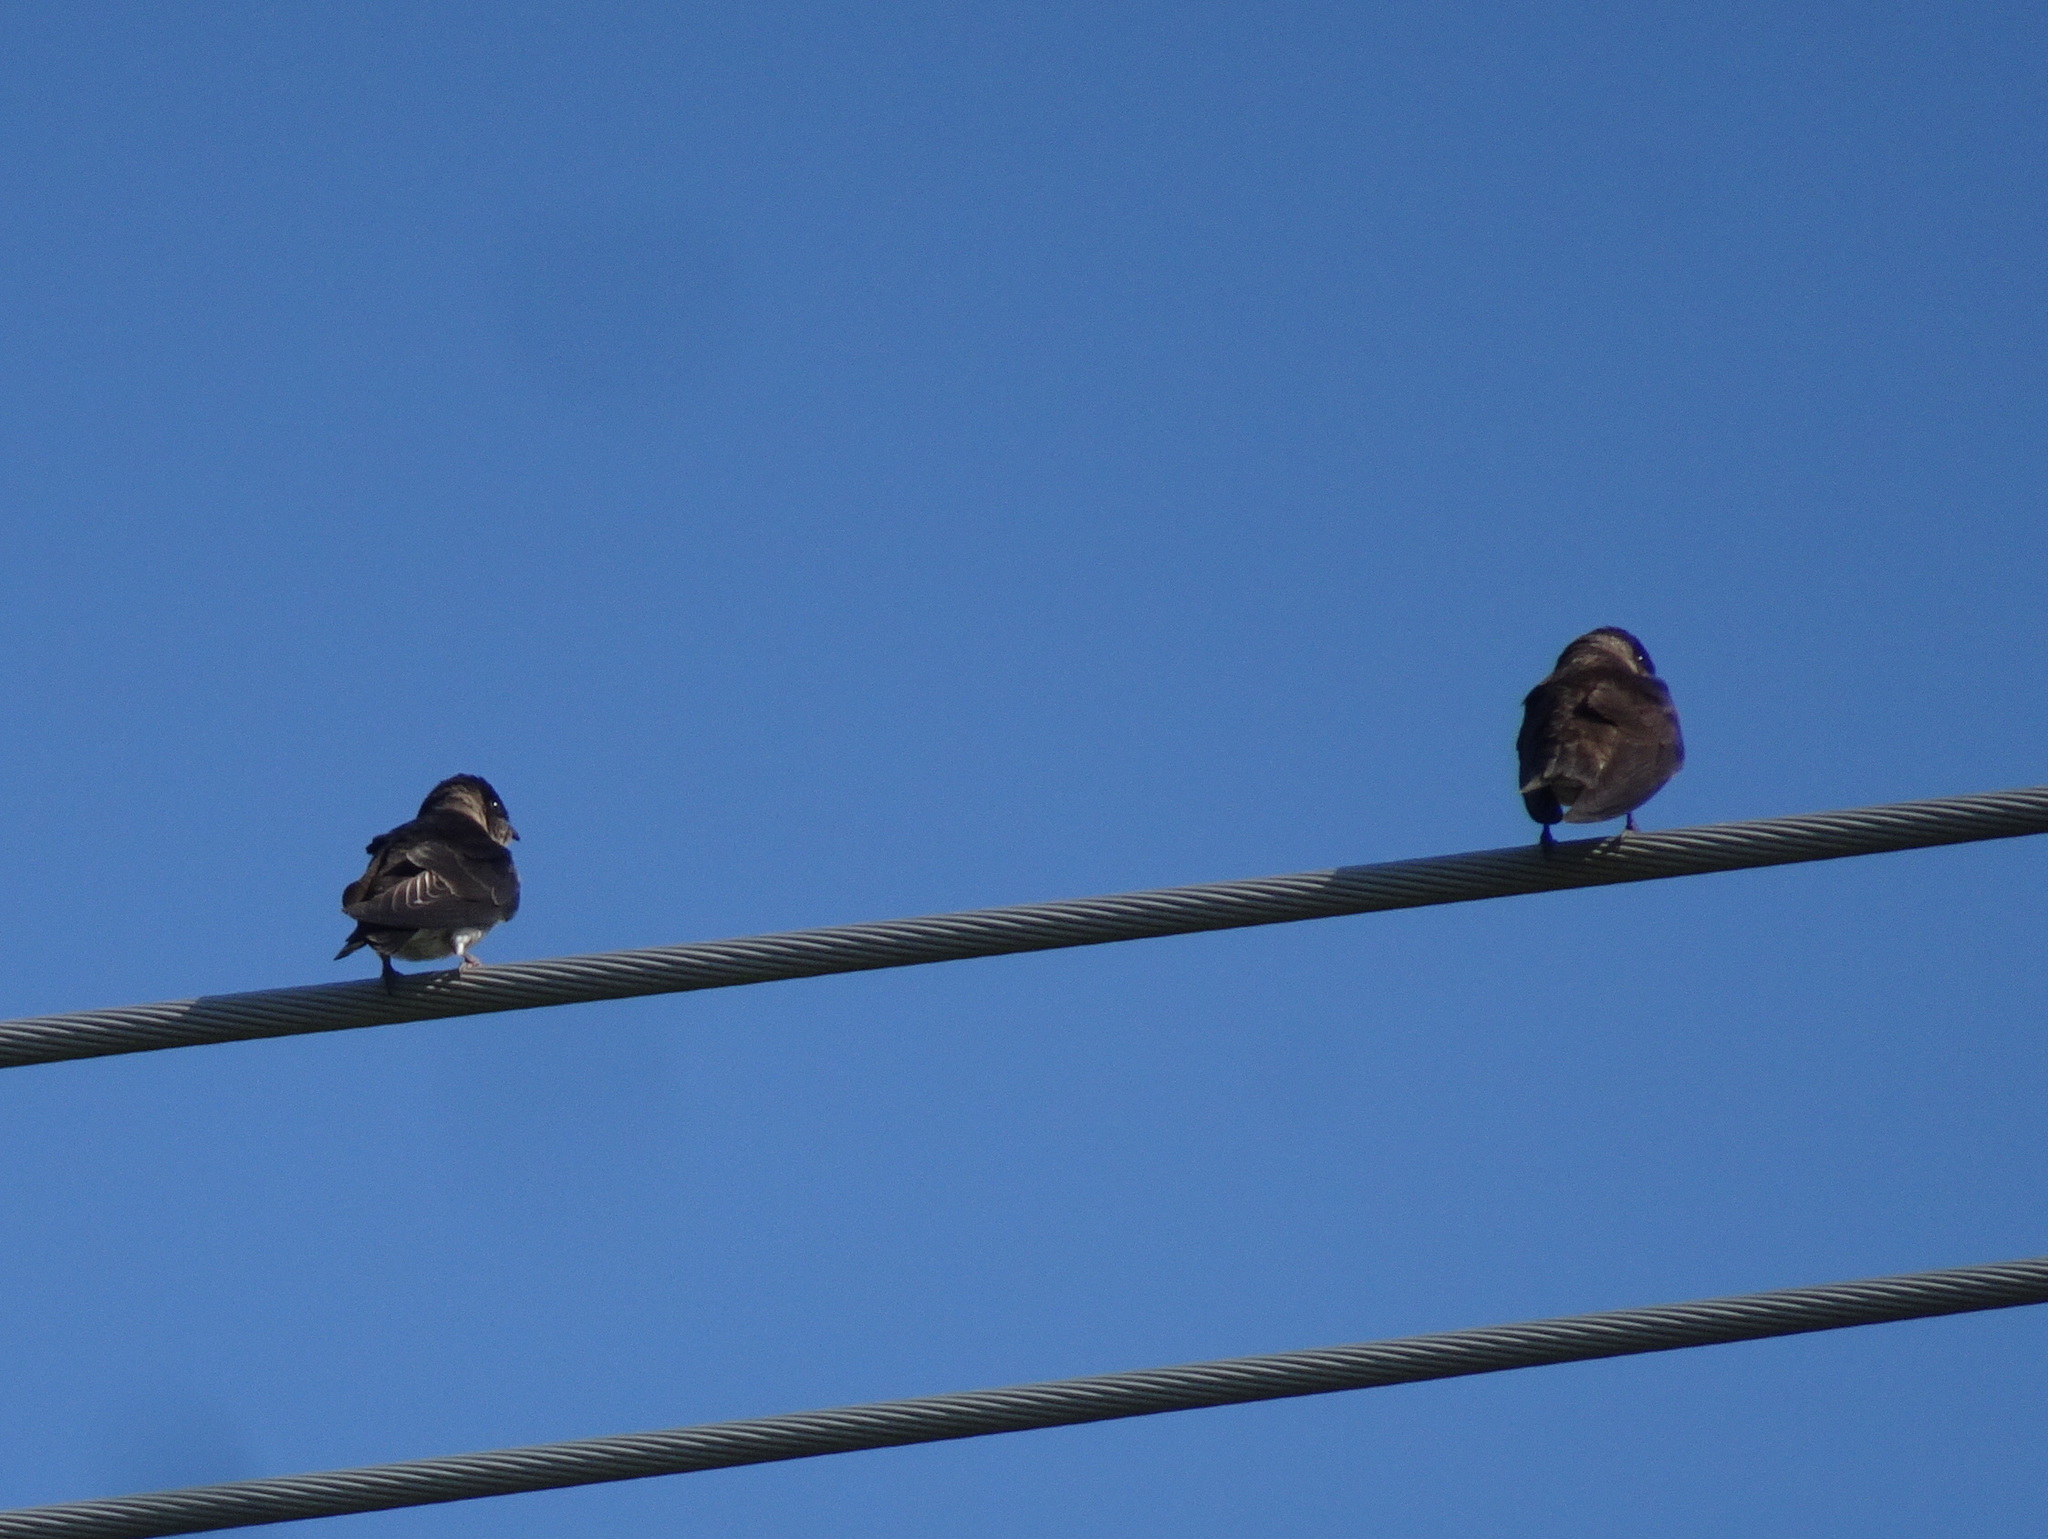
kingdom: Animalia
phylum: Chordata
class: Aves
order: Passeriformes
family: Hirundinidae
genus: Progne
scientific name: Progne subis
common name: Purple martin
